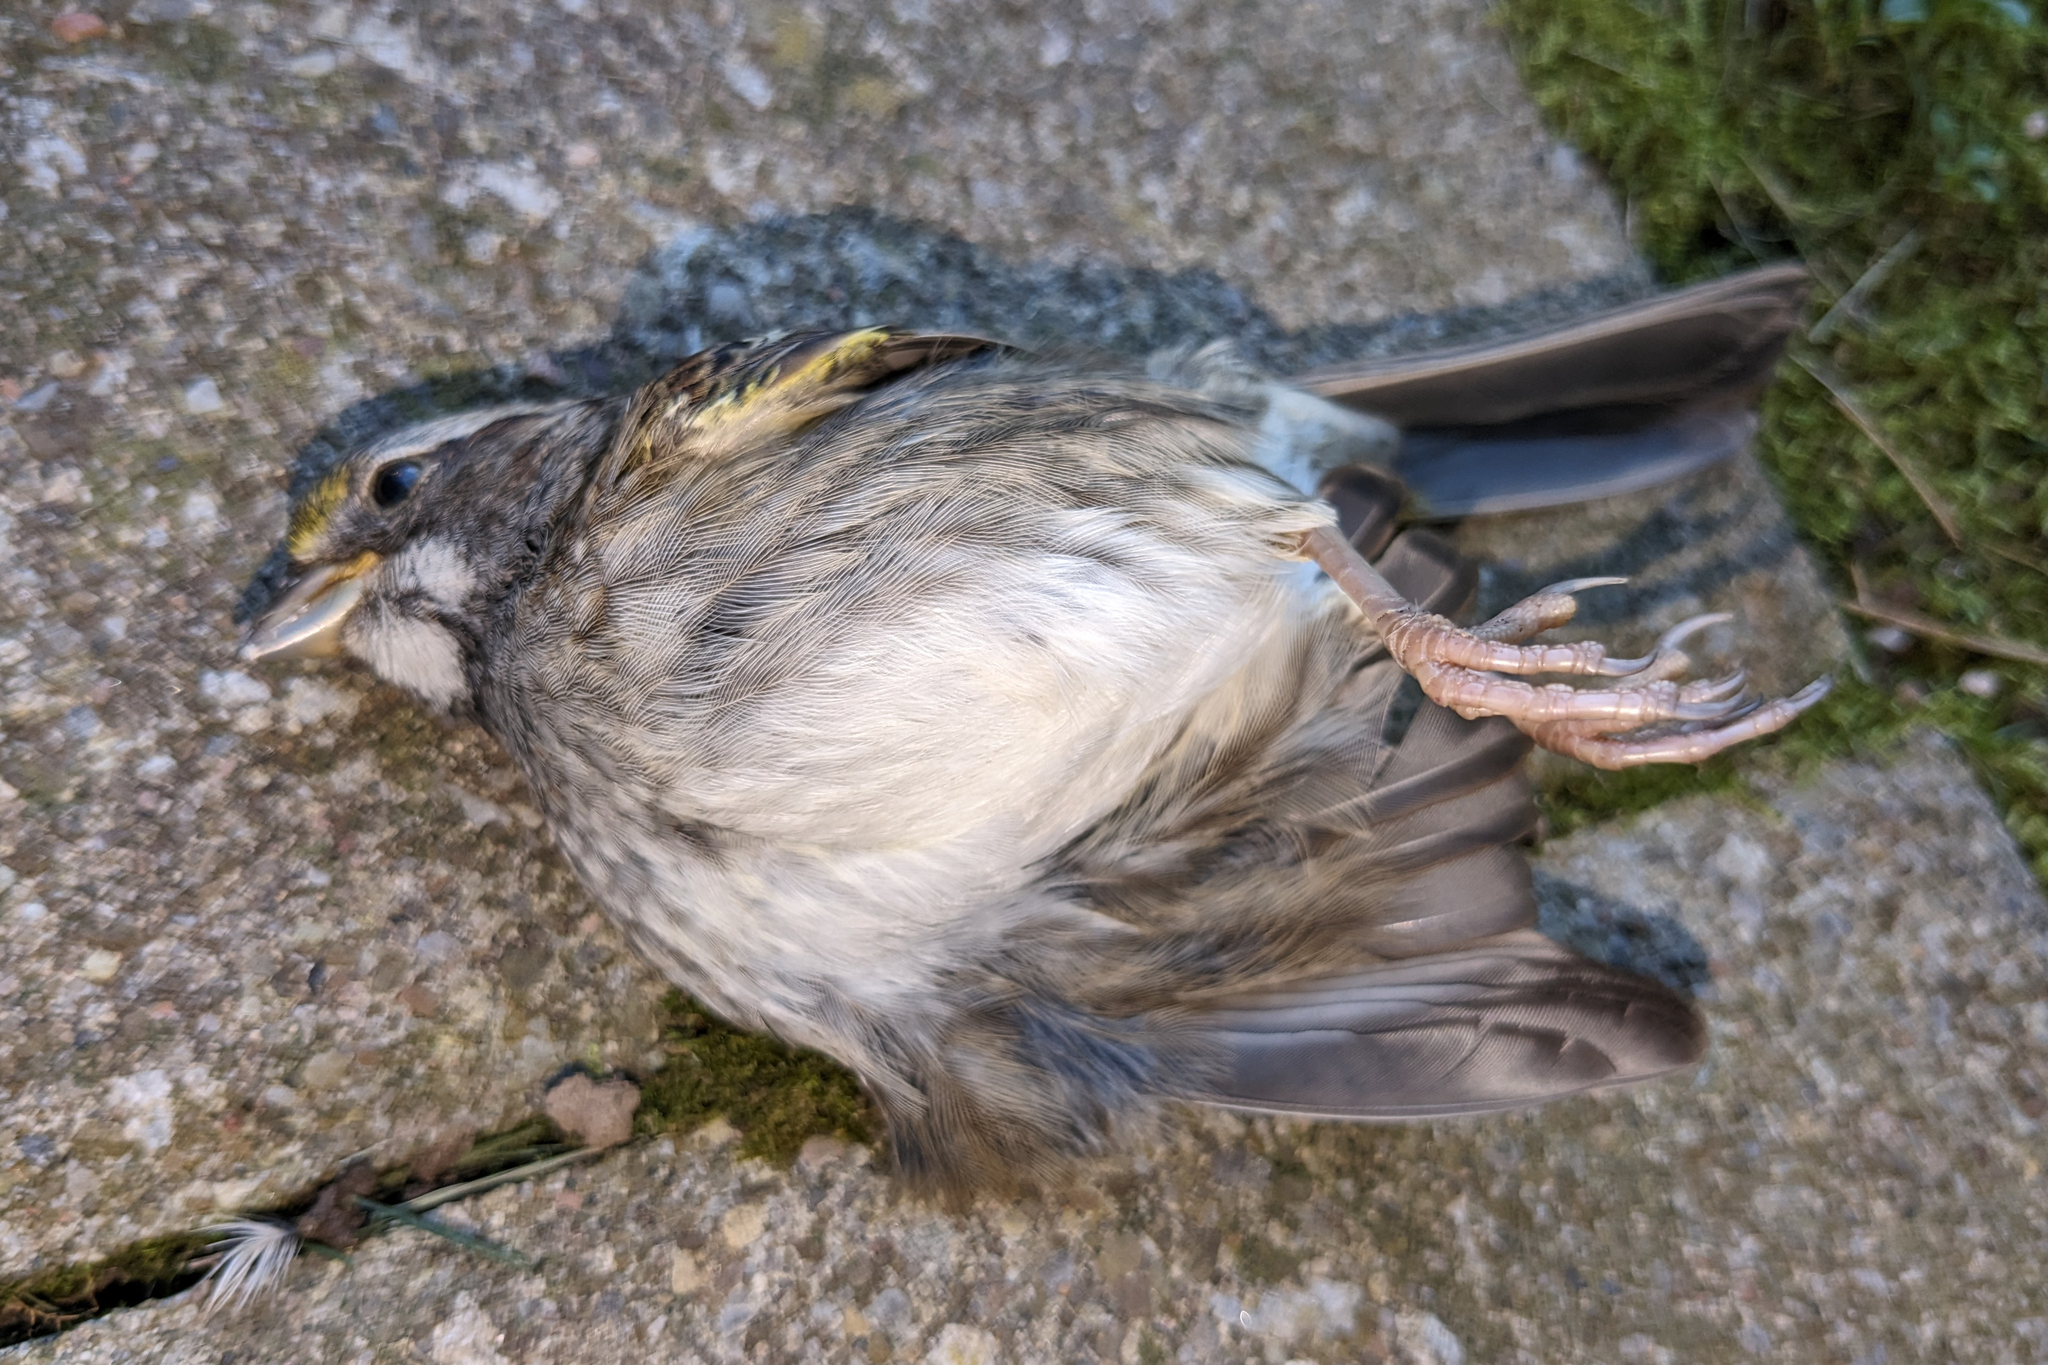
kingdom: Animalia
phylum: Chordata
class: Aves
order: Passeriformes
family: Passerellidae
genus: Zonotrichia
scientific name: Zonotrichia albicollis
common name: White-throated sparrow
